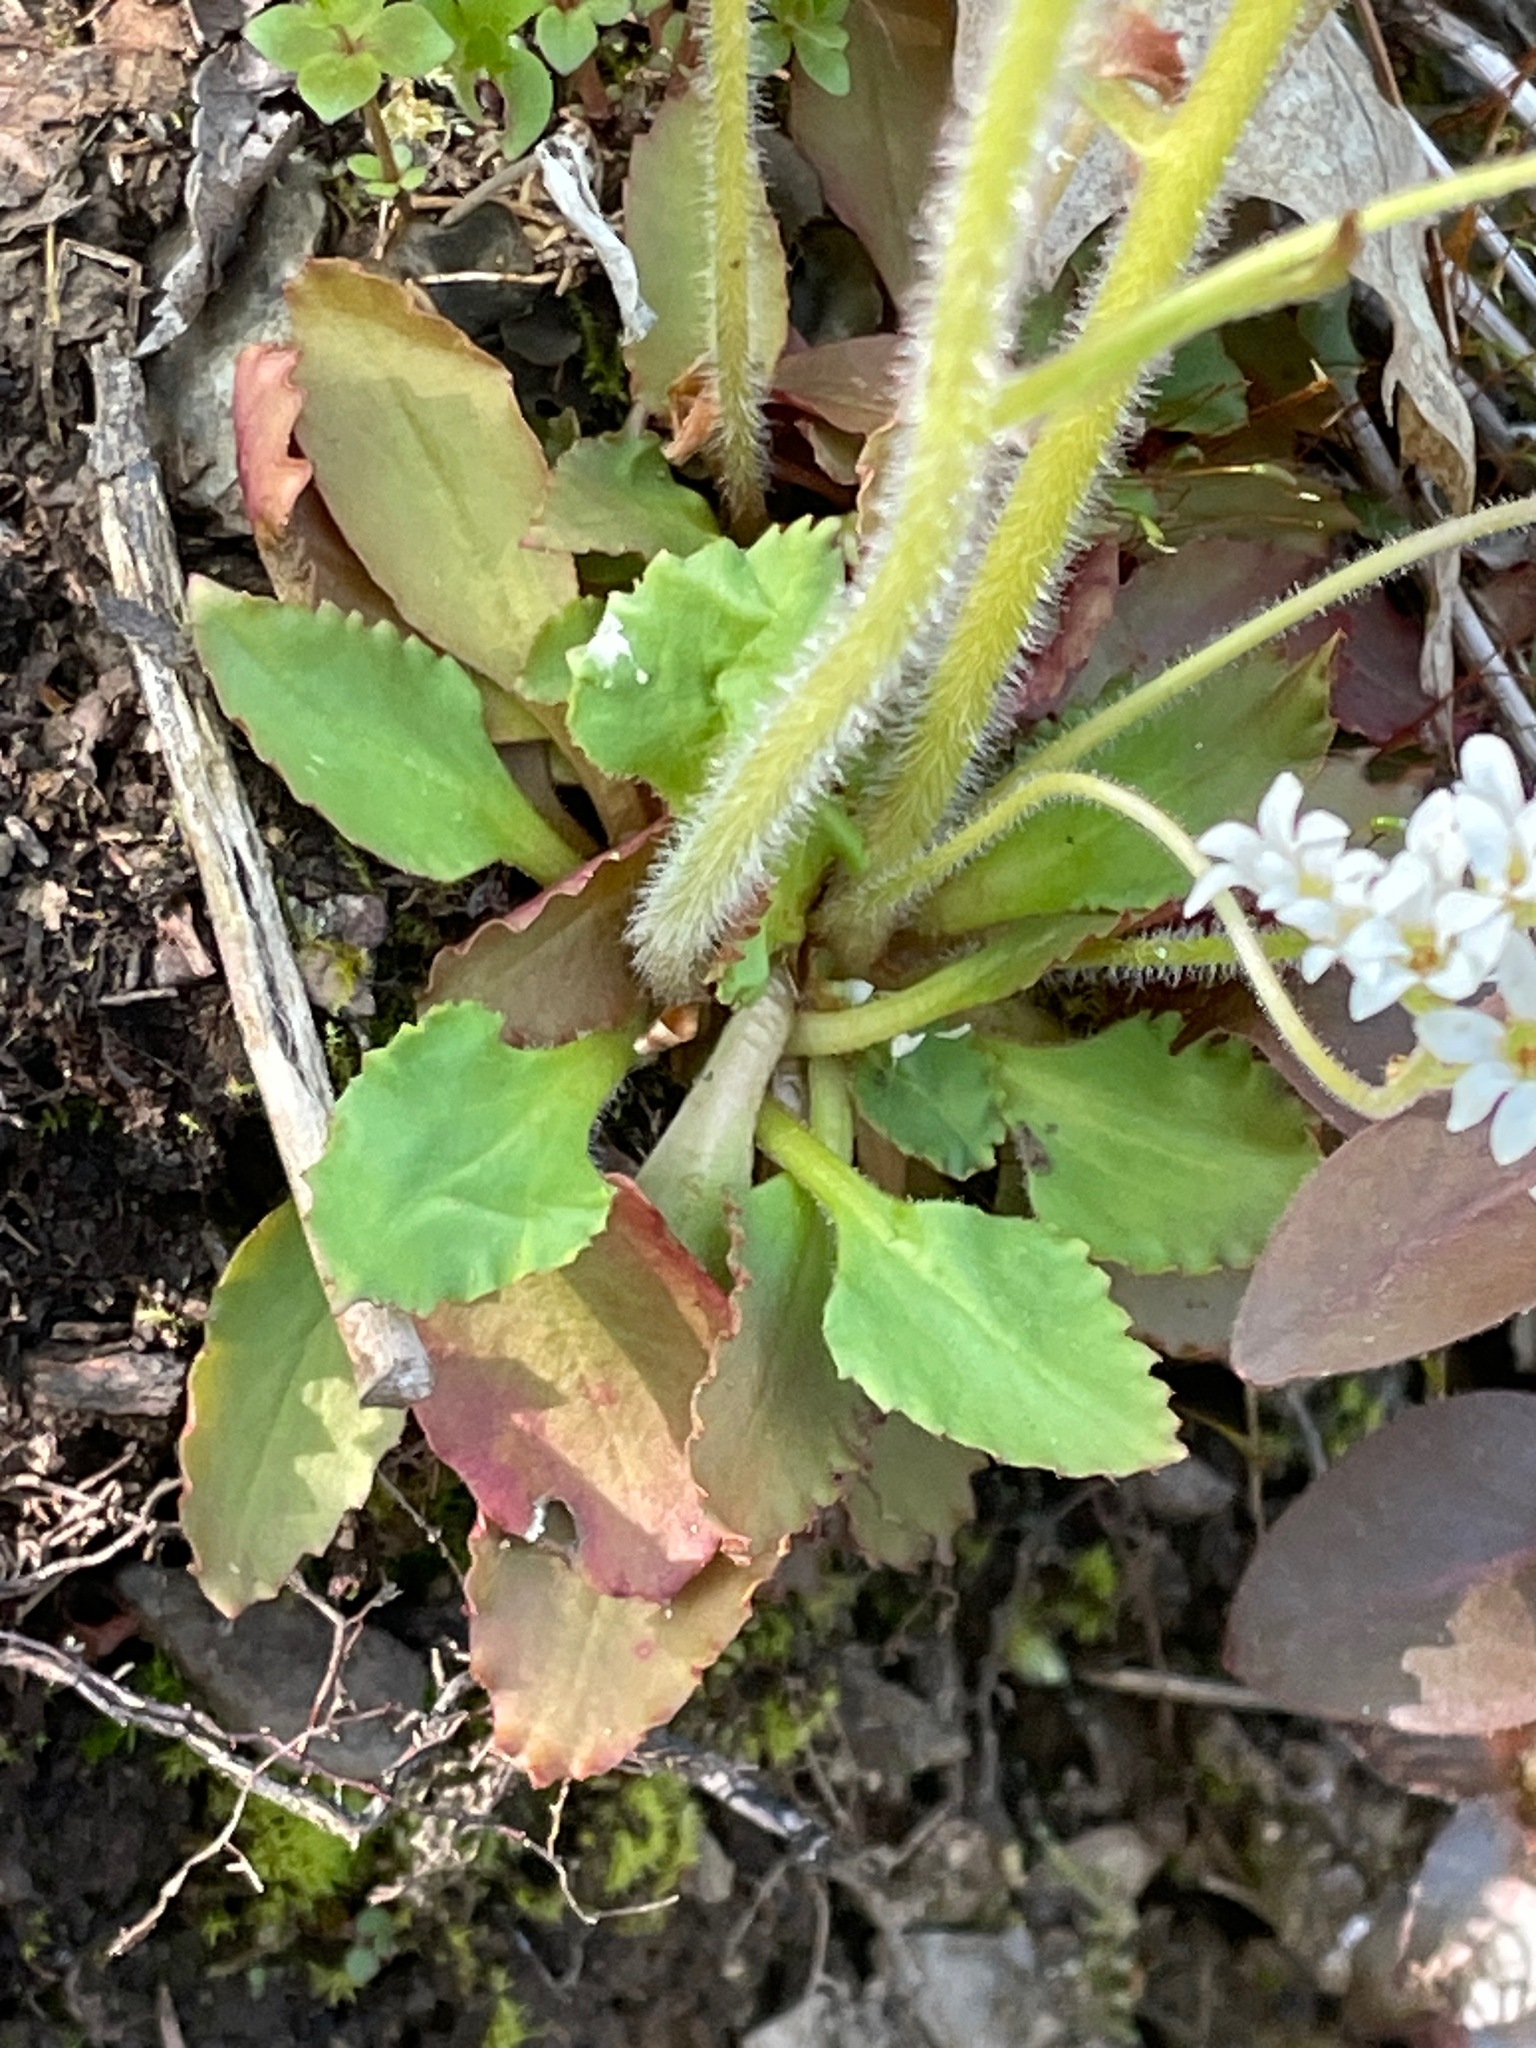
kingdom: Plantae
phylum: Tracheophyta
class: Magnoliopsida
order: Saxifragales
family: Saxifragaceae
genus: Micranthes
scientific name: Micranthes virginiensis
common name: Early saxifrage
